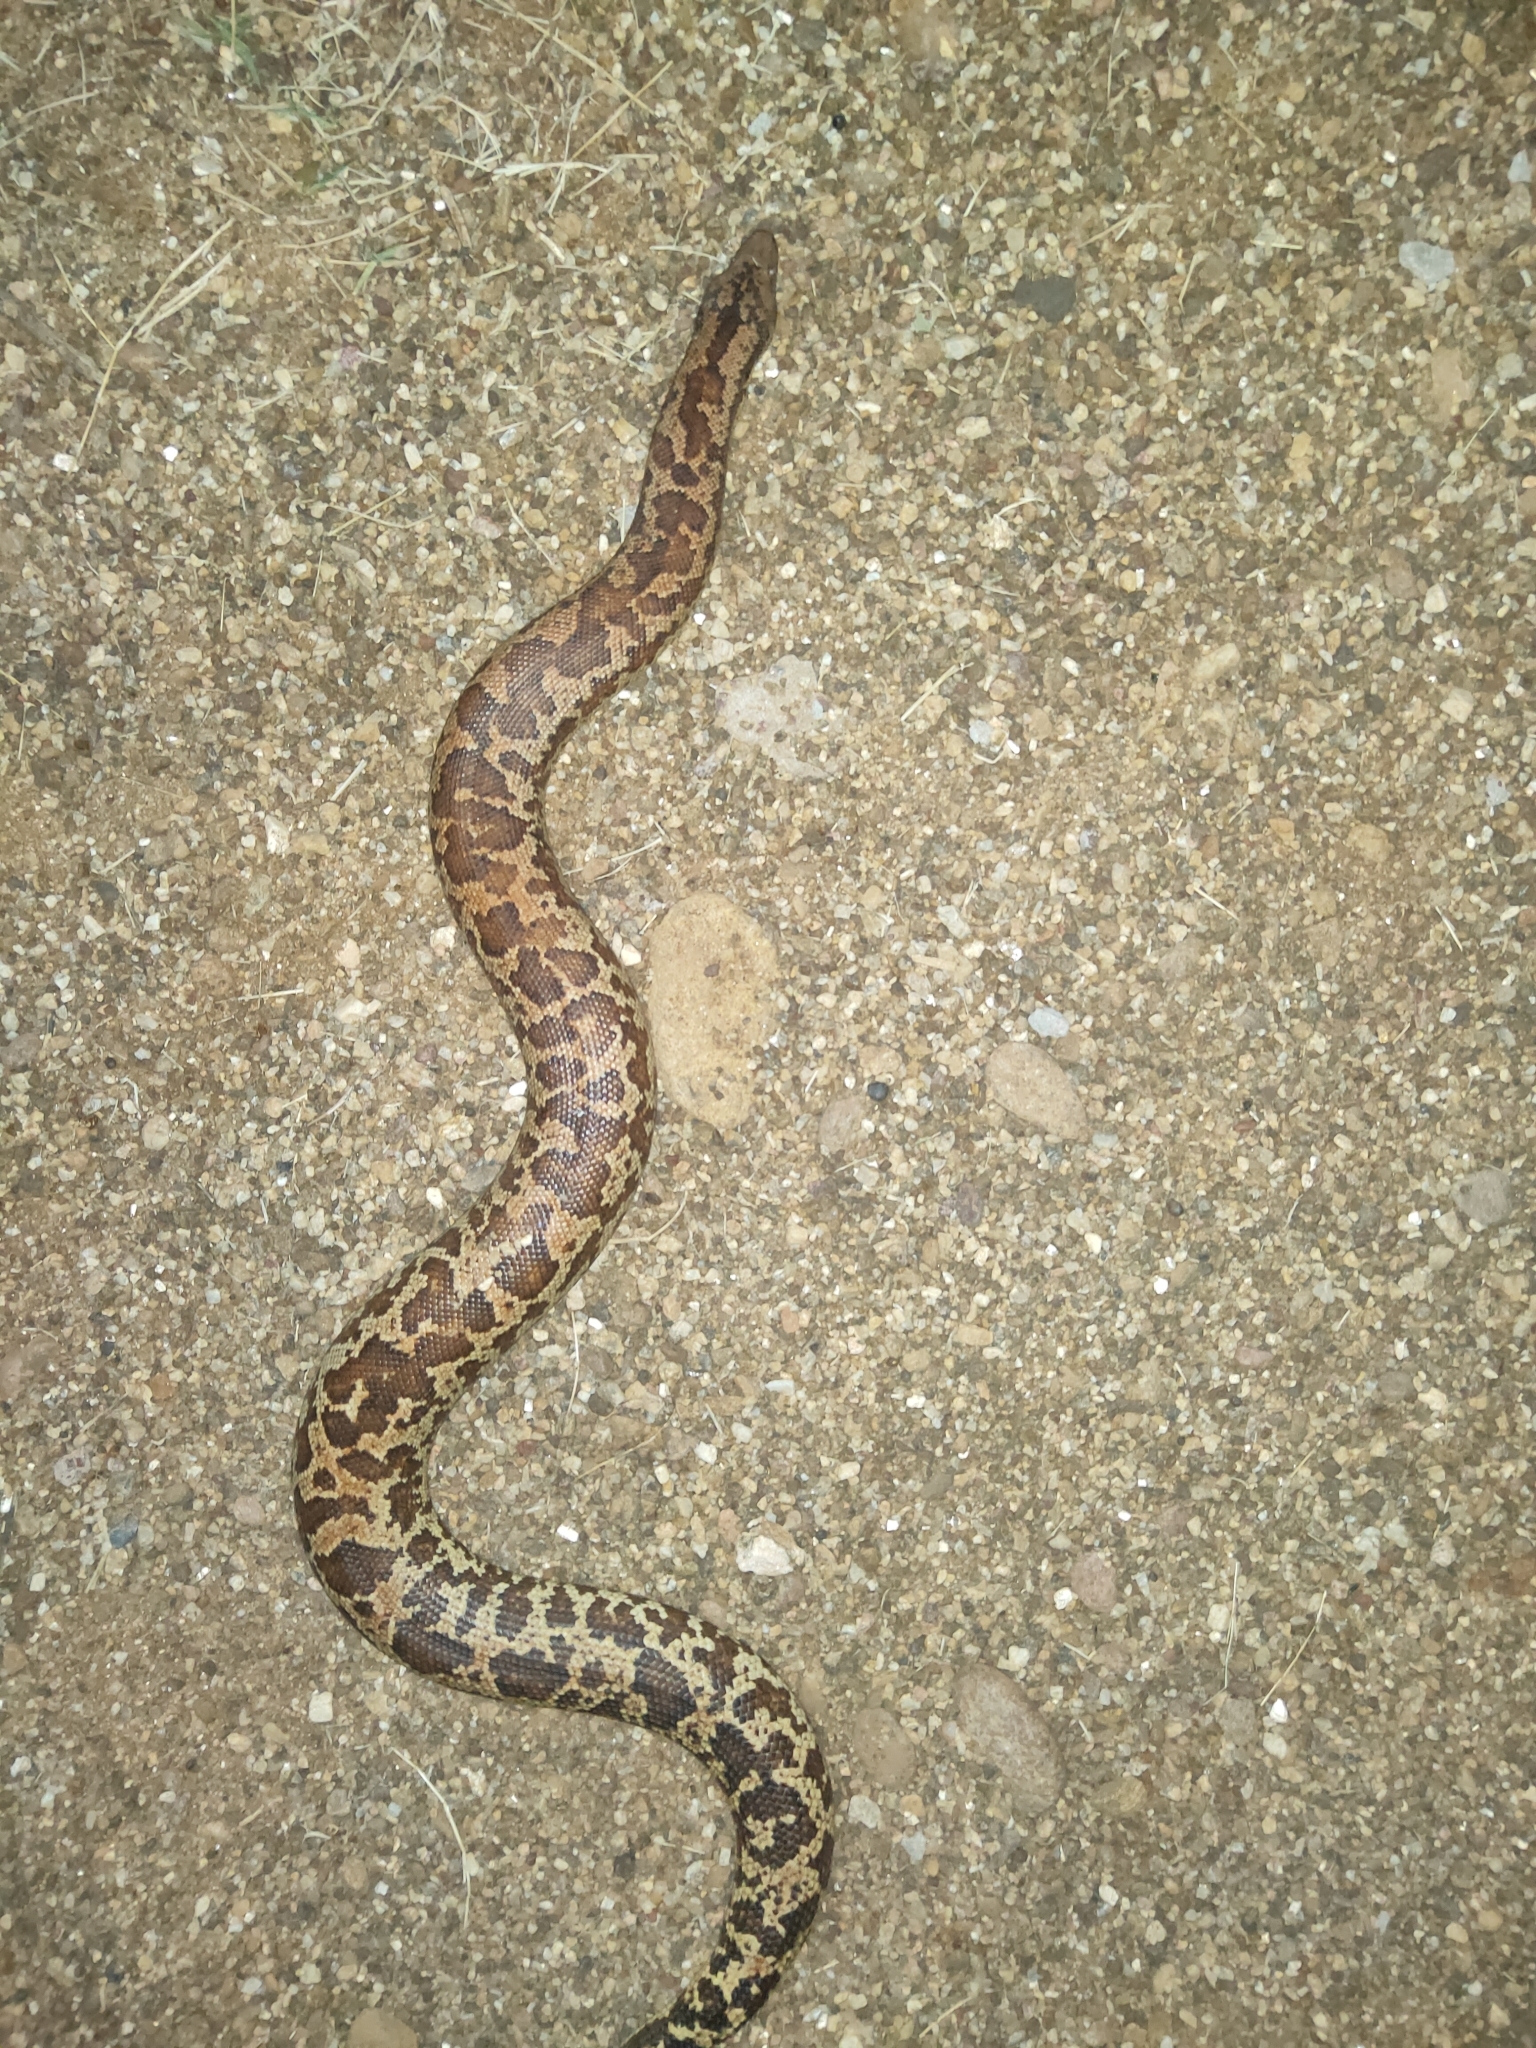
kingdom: Animalia
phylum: Chordata
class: Squamata
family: Boidae
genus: Eryx
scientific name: Eryx conicus
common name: Rough-tailed sand boa
